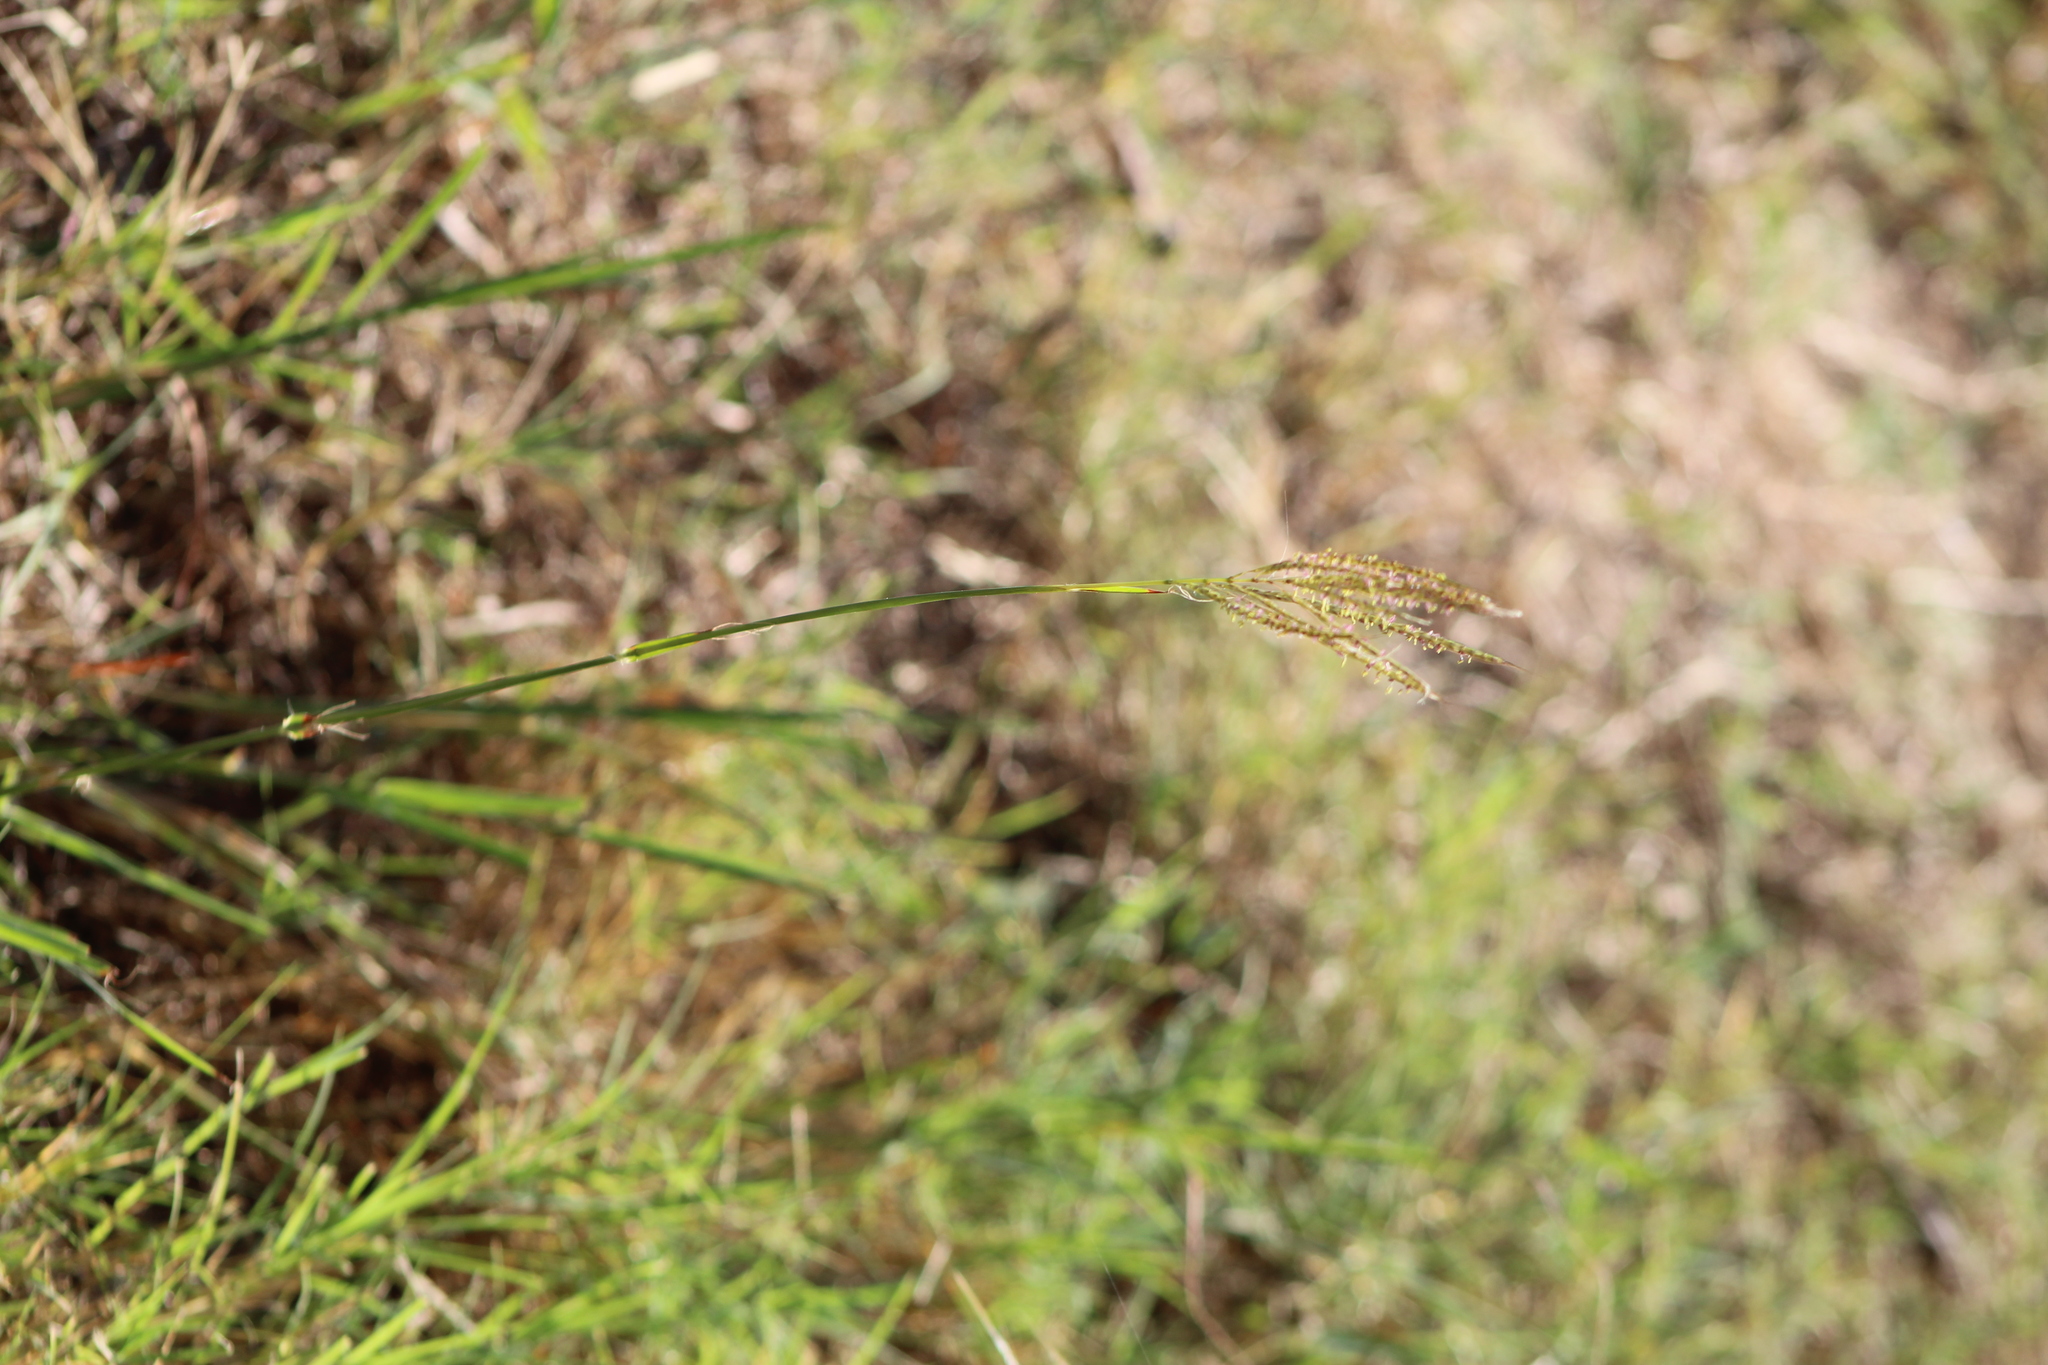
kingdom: Plantae
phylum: Tracheophyta
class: Liliopsida
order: Poales
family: Poaceae
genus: Bothriochloa
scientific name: Bothriochloa ischaemum
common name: Yellow bluestem
